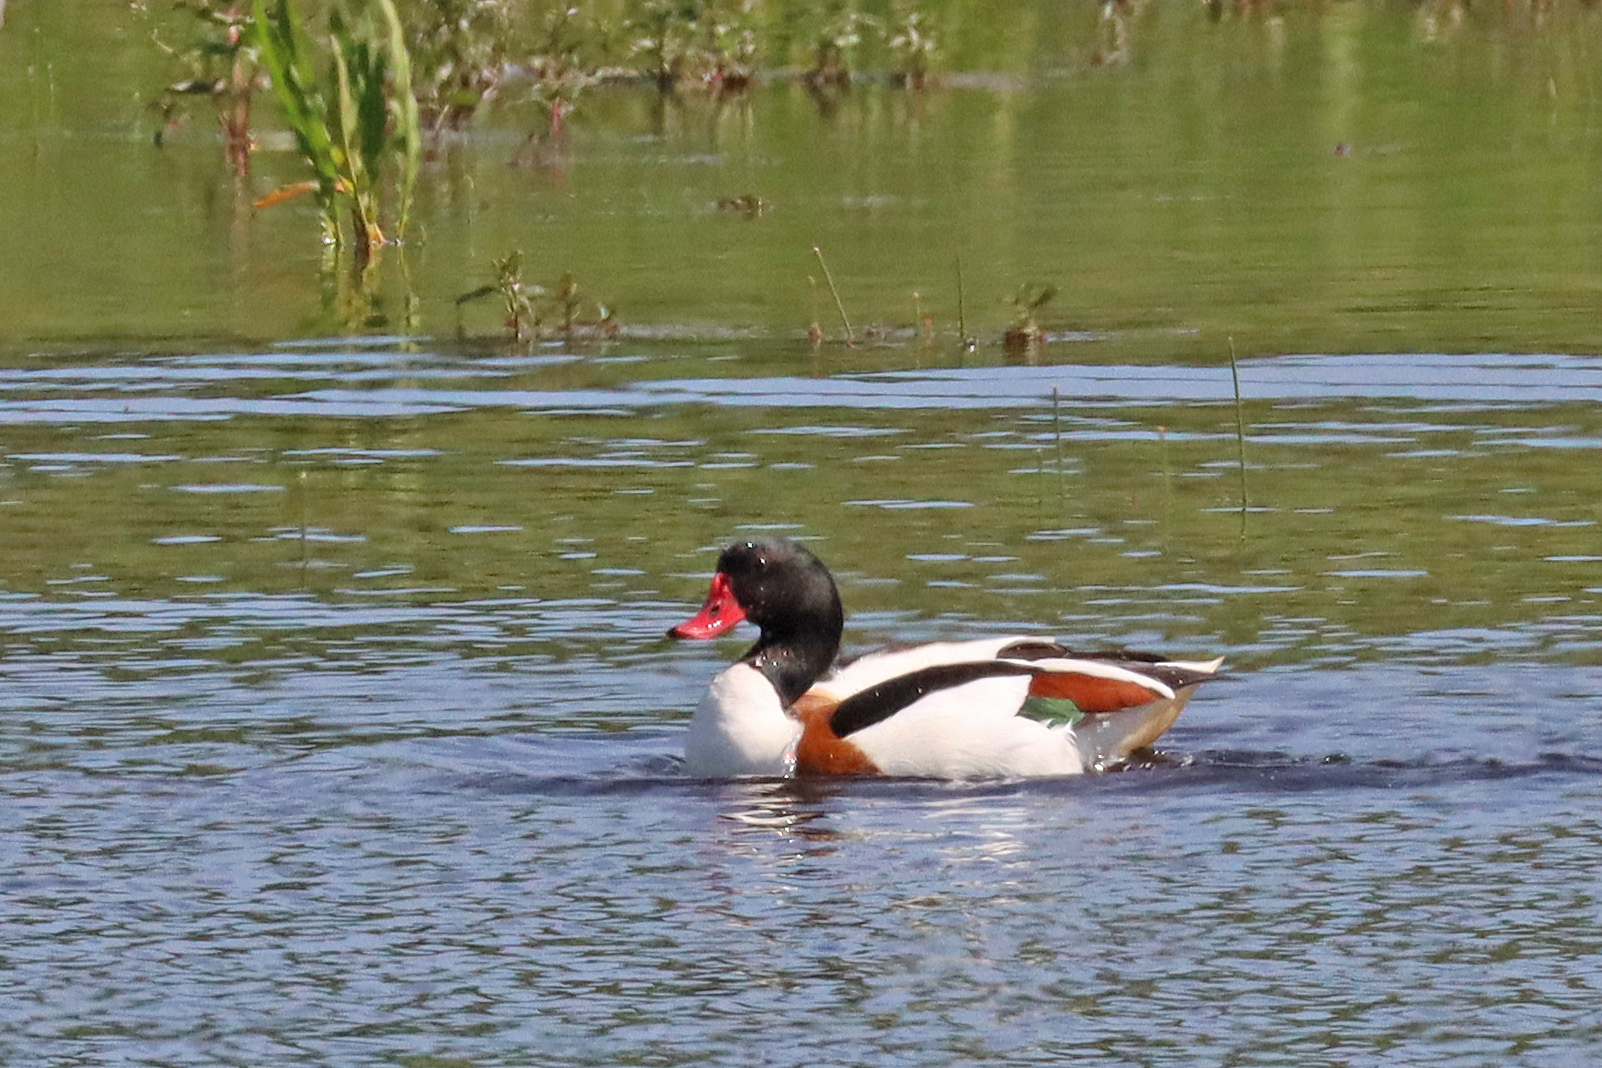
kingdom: Animalia
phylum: Chordata
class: Aves
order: Anseriformes
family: Anatidae
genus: Tadorna
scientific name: Tadorna tadorna
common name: Common shelduck
